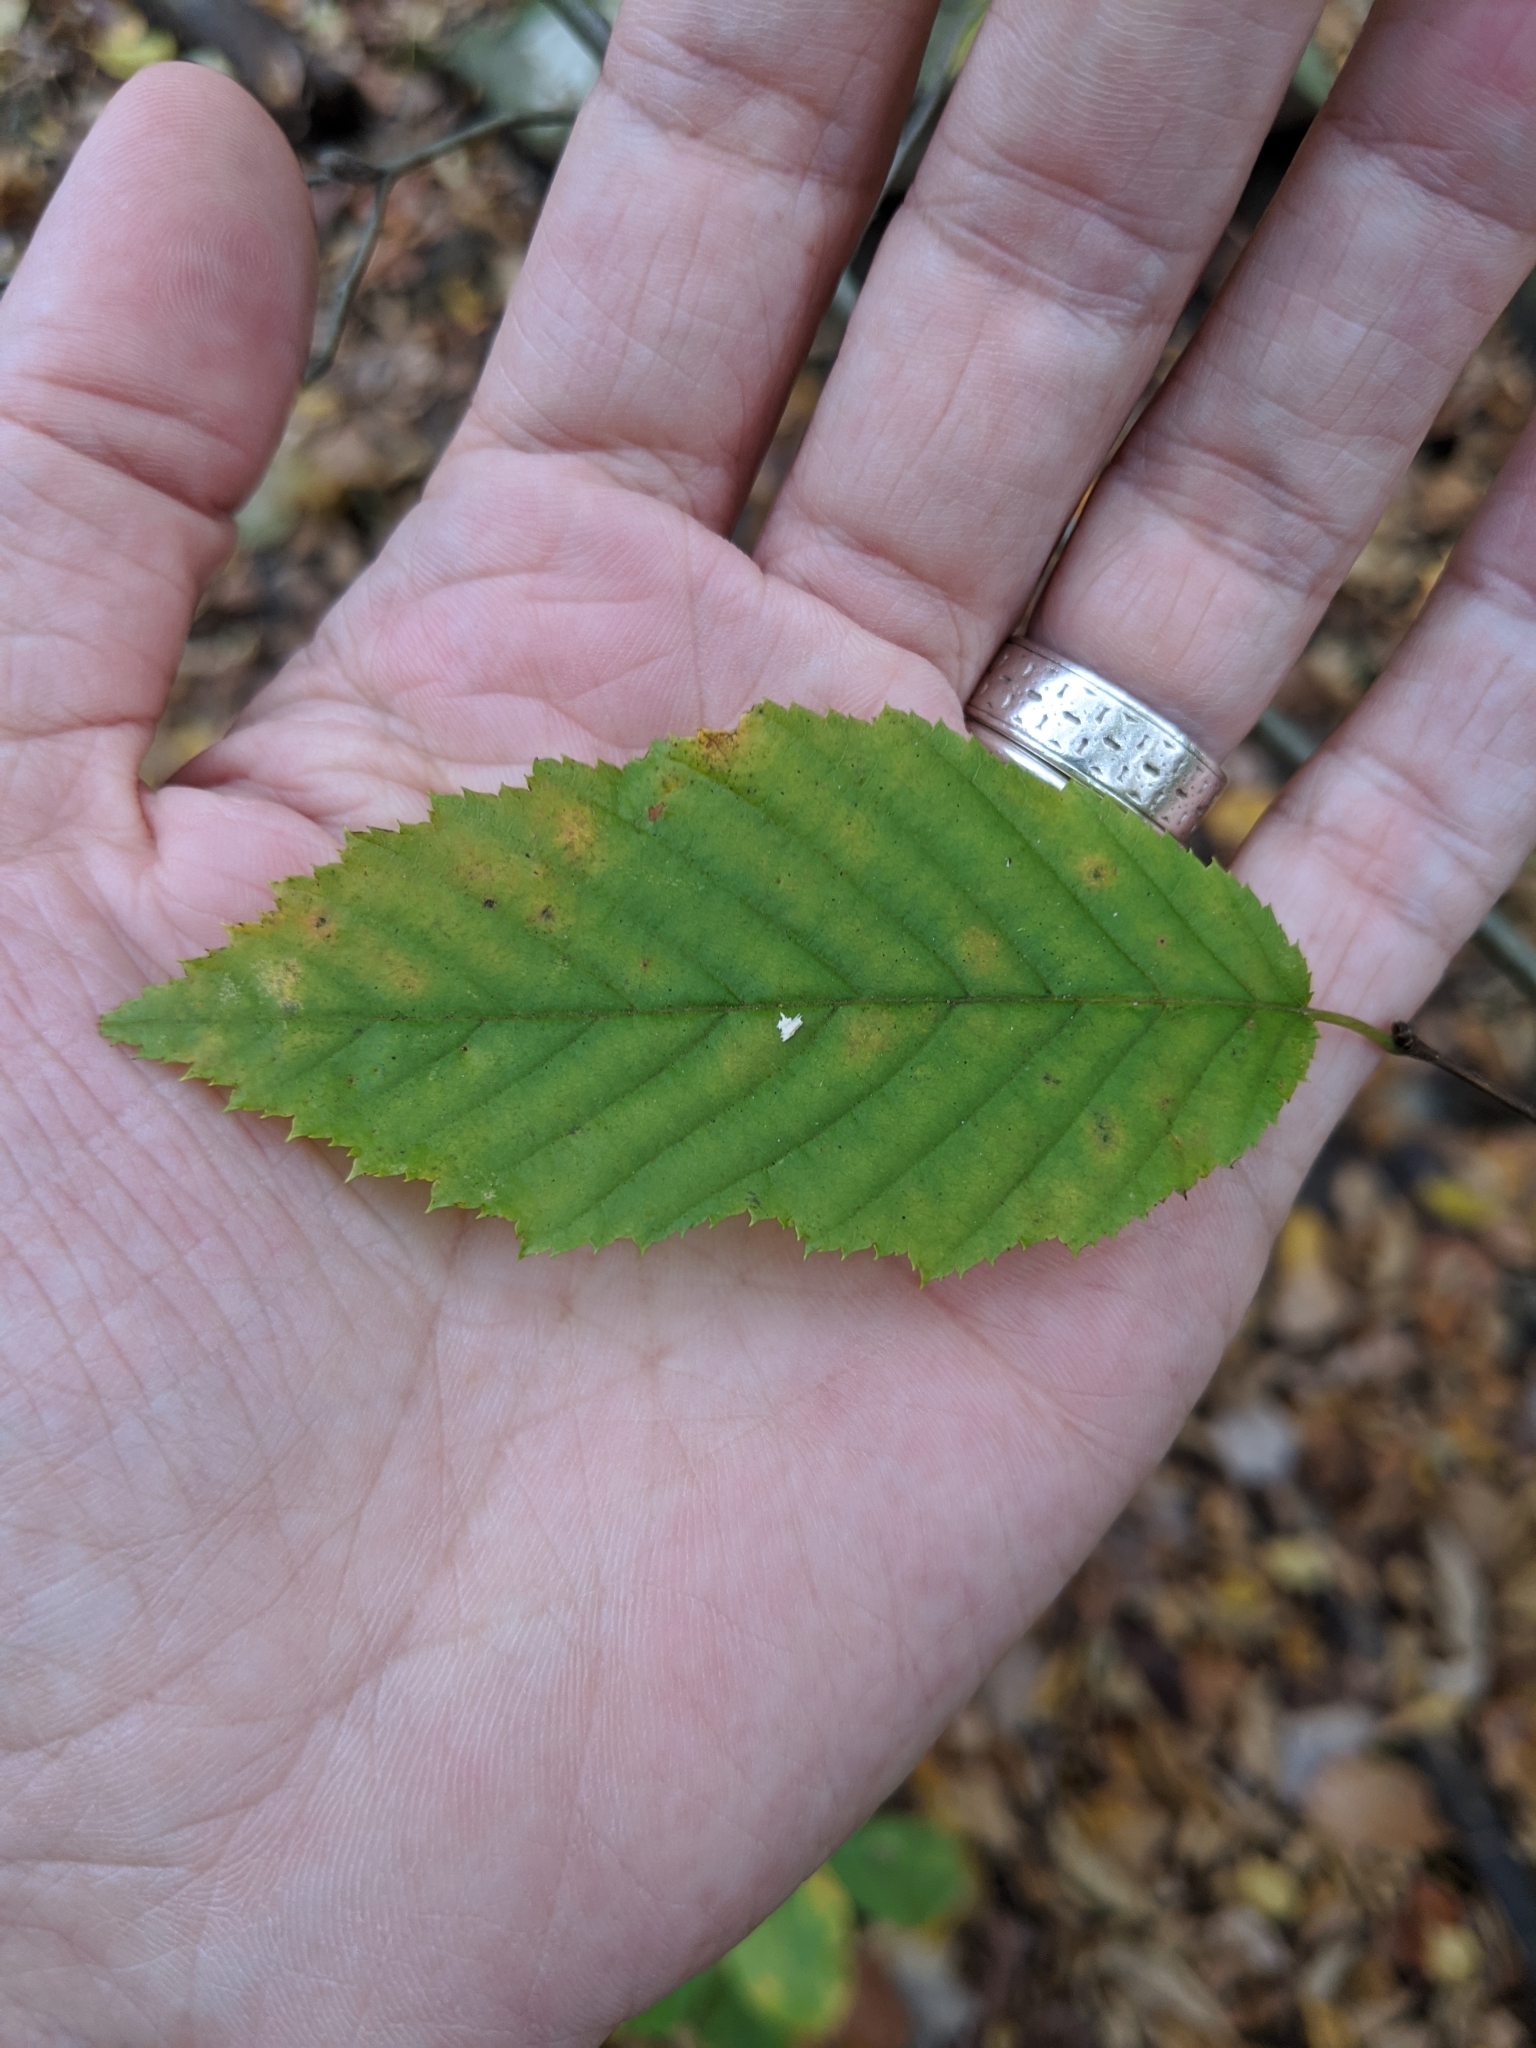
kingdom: Plantae
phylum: Tracheophyta
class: Magnoliopsida
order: Fagales
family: Betulaceae
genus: Carpinus
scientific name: Carpinus caroliniana
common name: American hornbeam
